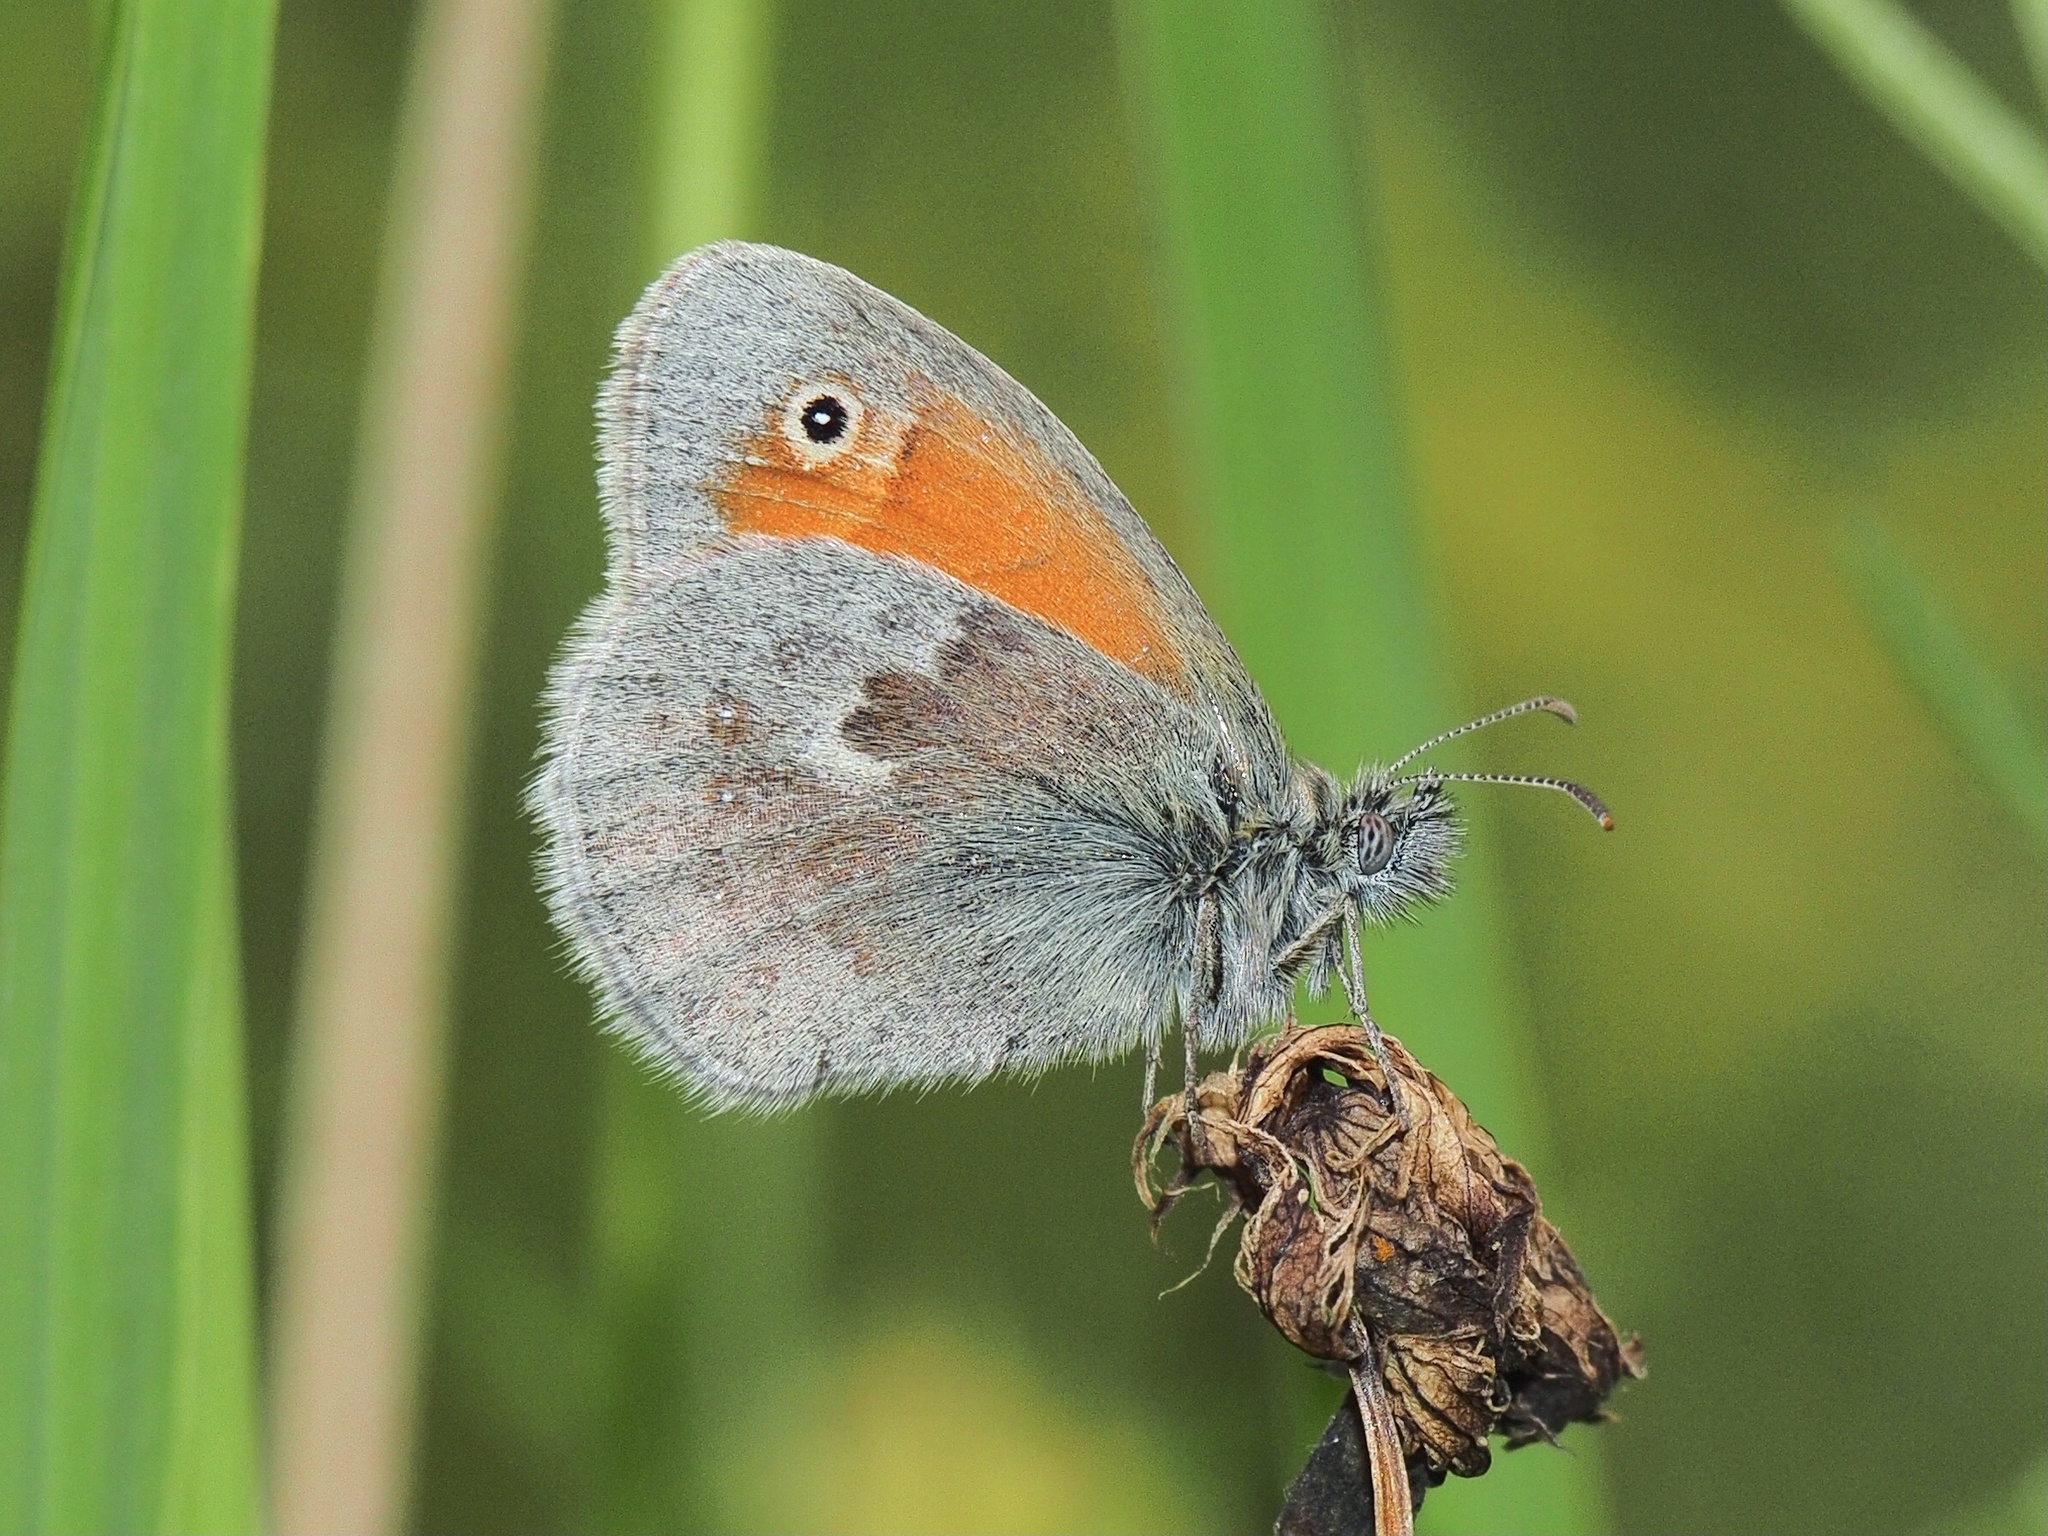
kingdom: Animalia
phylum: Arthropoda
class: Insecta
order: Lepidoptera
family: Nymphalidae
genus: Coenonympha
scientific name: Coenonympha pamphilus
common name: Small heath
